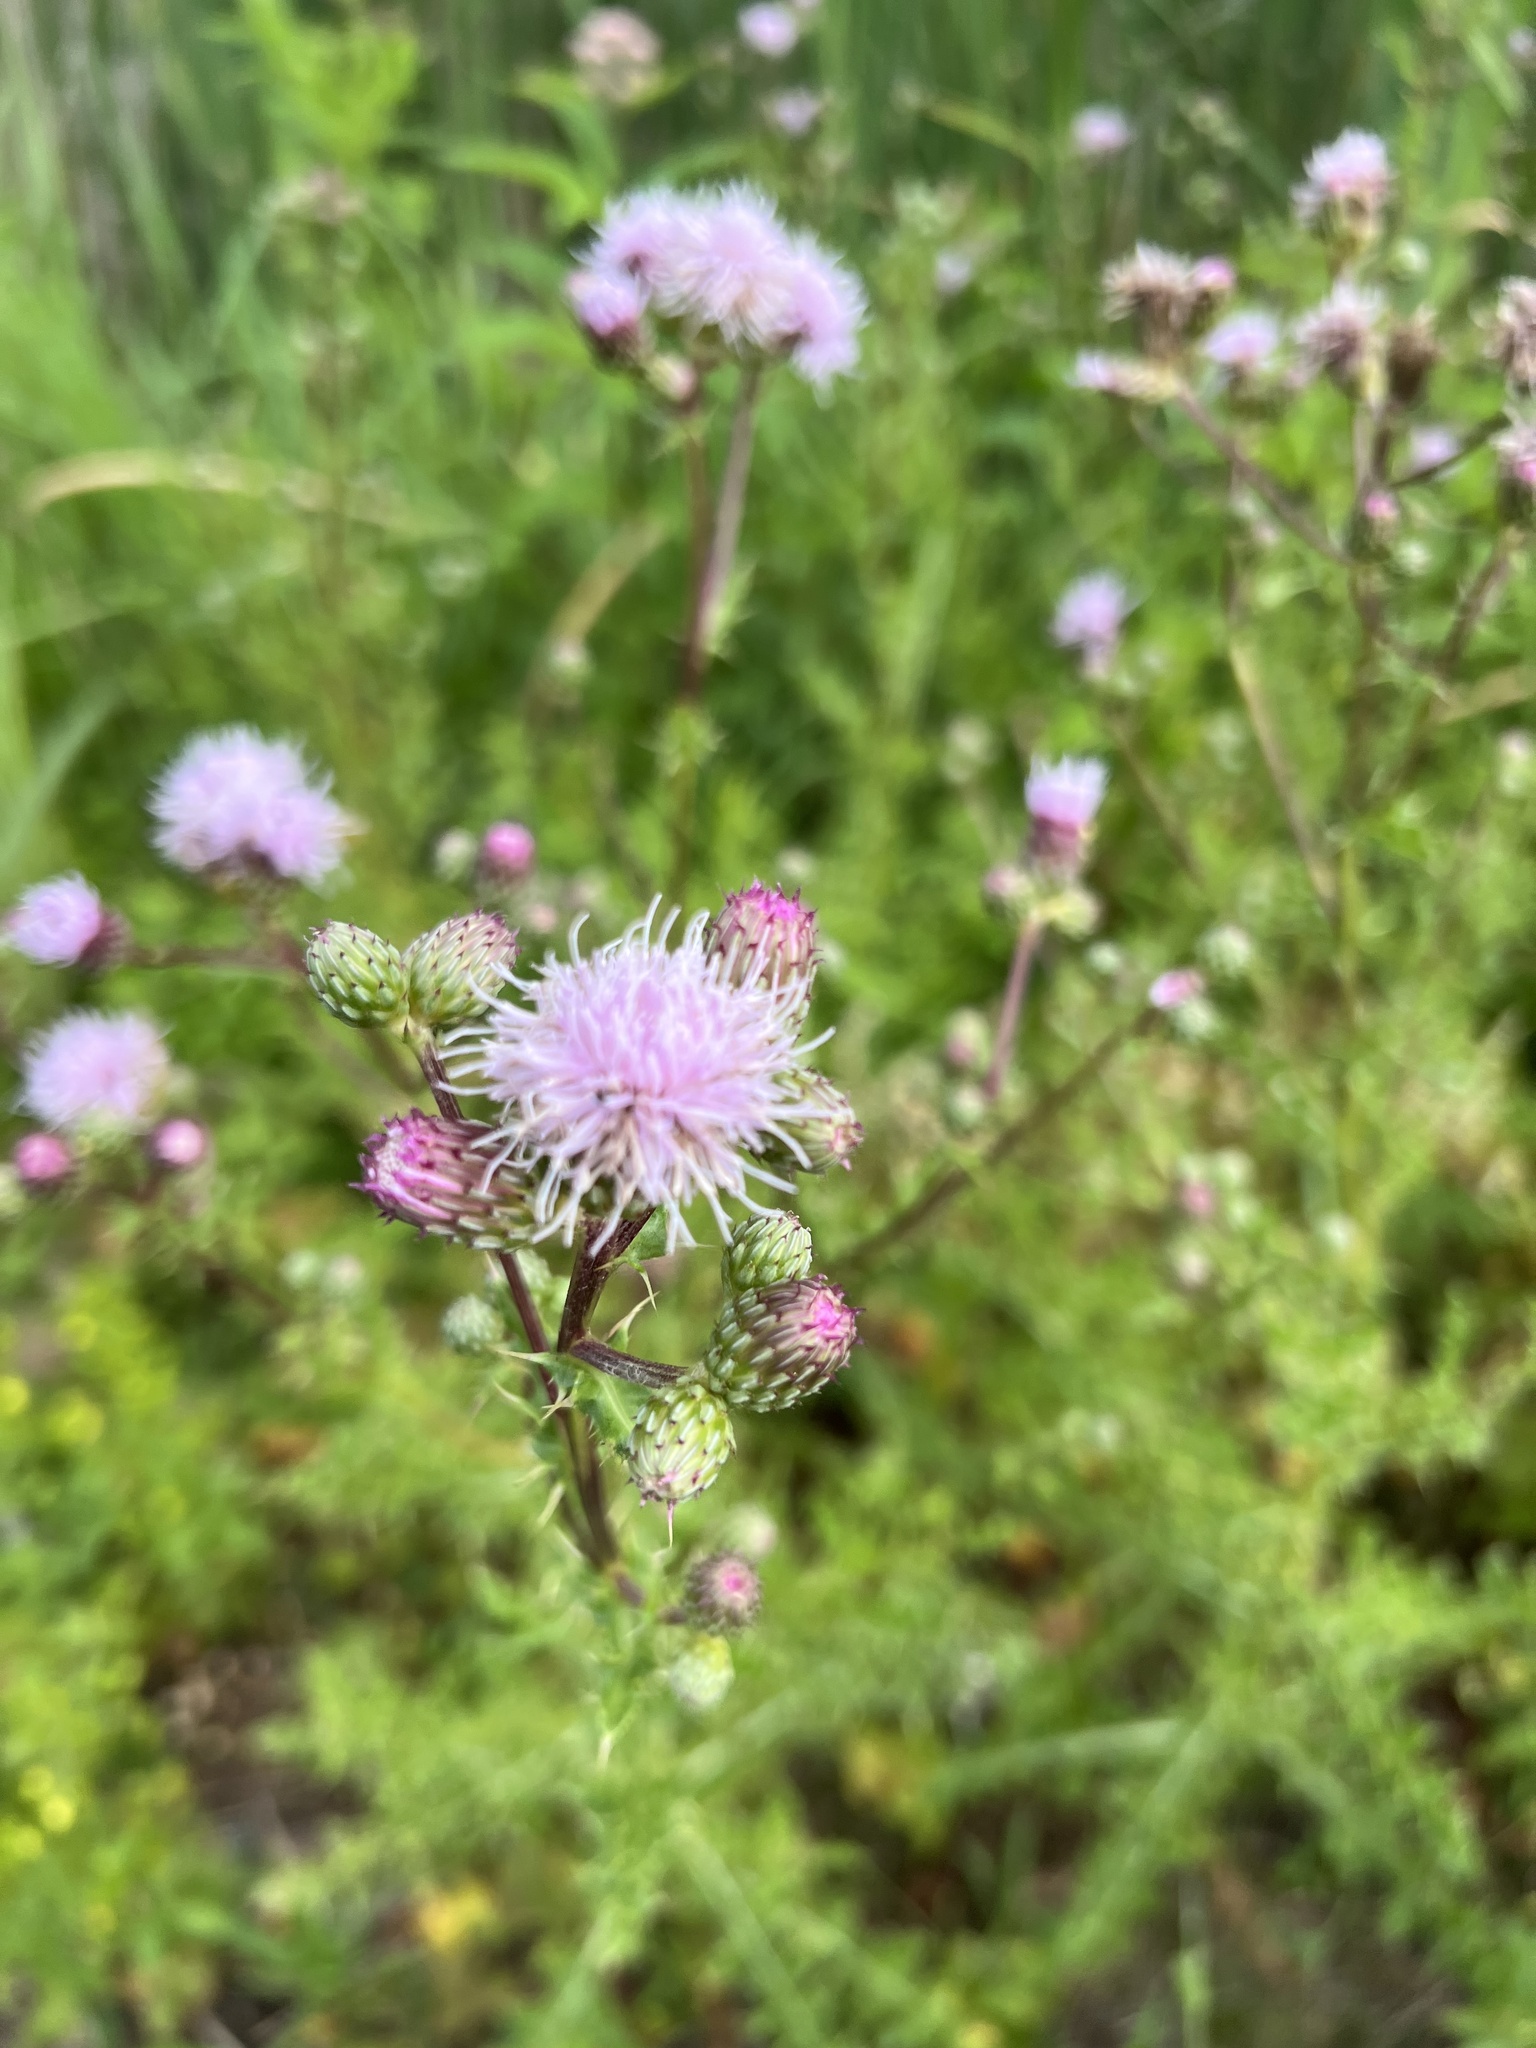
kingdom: Plantae
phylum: Tracheophyta
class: Magnoliopsida
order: Asterales
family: Asteraceae
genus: Cirsium
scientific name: Cirsium arvense
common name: Creeping thistle
